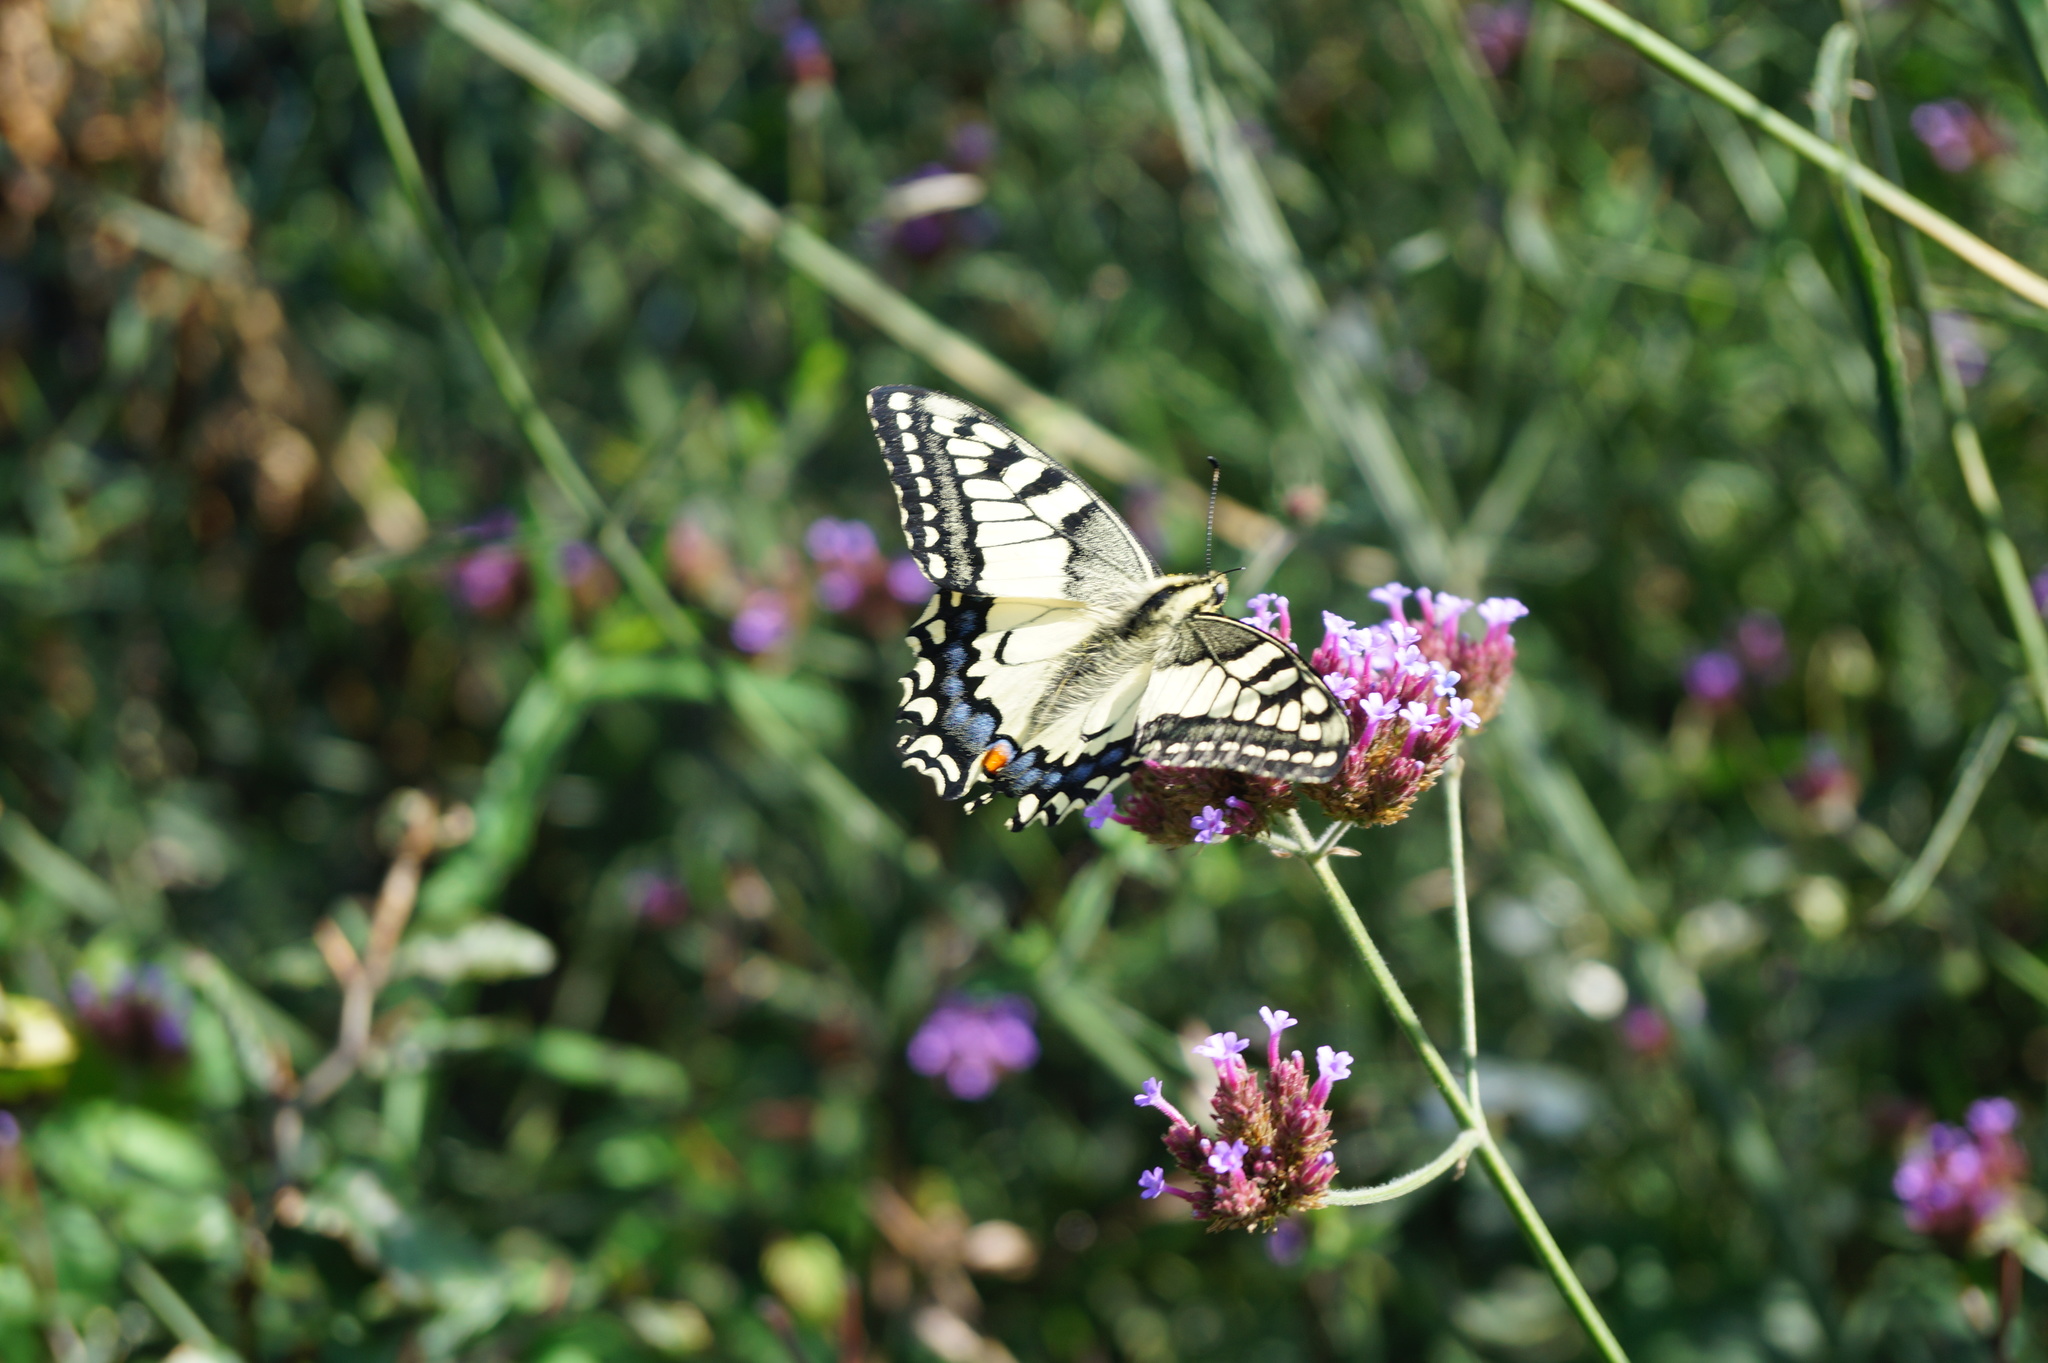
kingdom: Animalia
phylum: Arthropoda
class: Insecta
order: Lepidoptera
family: Papilionidae
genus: Papilio
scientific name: Papilio machaon
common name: Swallowtail
